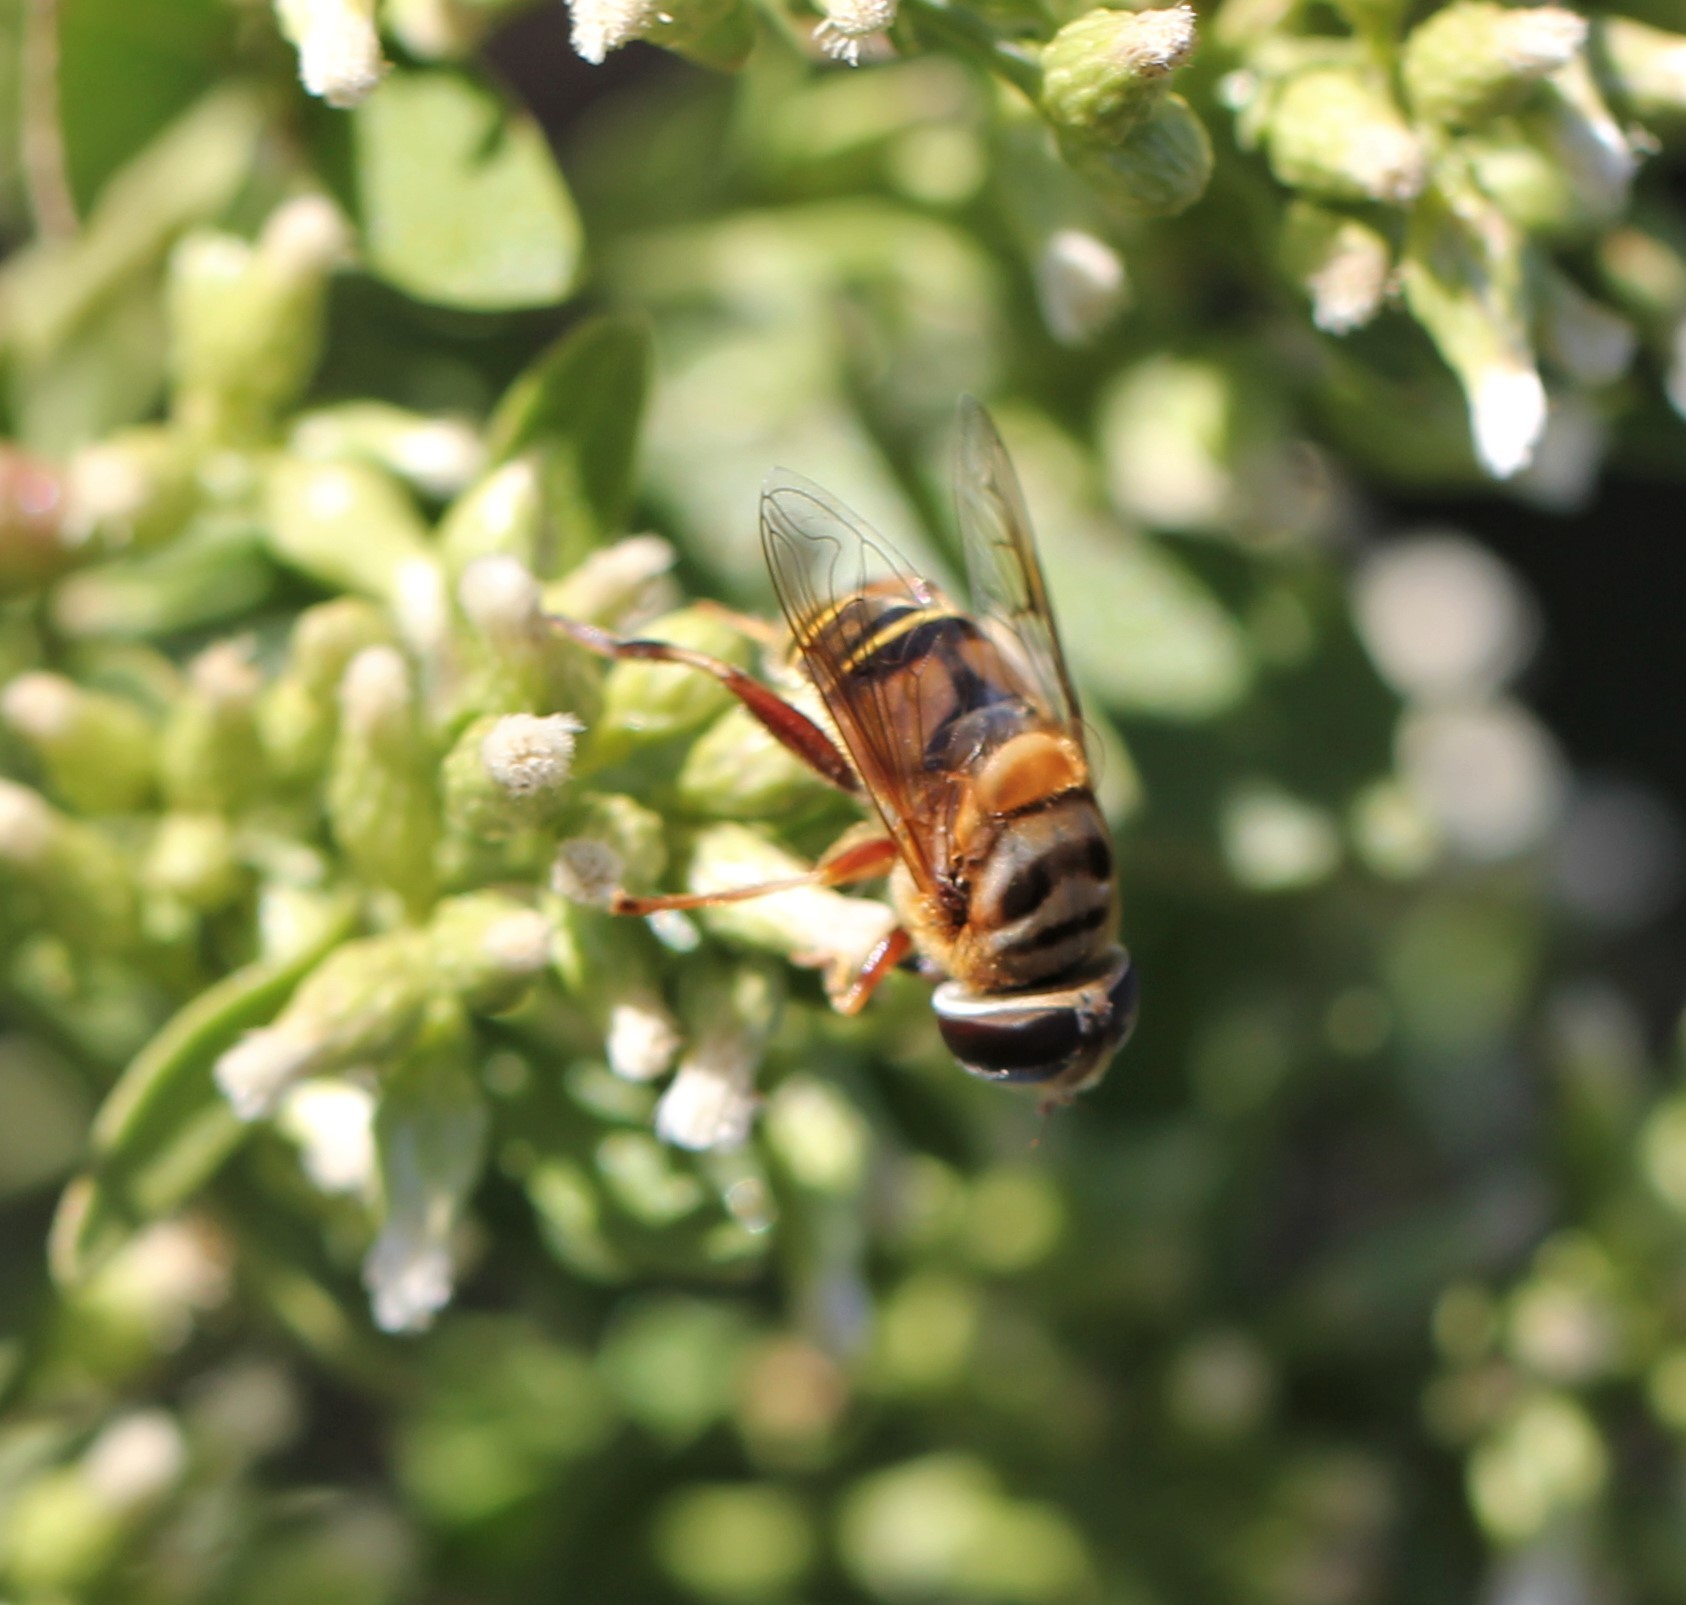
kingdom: Animalia
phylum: Arthropoda
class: Insecta
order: Diptera
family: Syrphidae
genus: Palpada
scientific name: Palpada vinetorum
